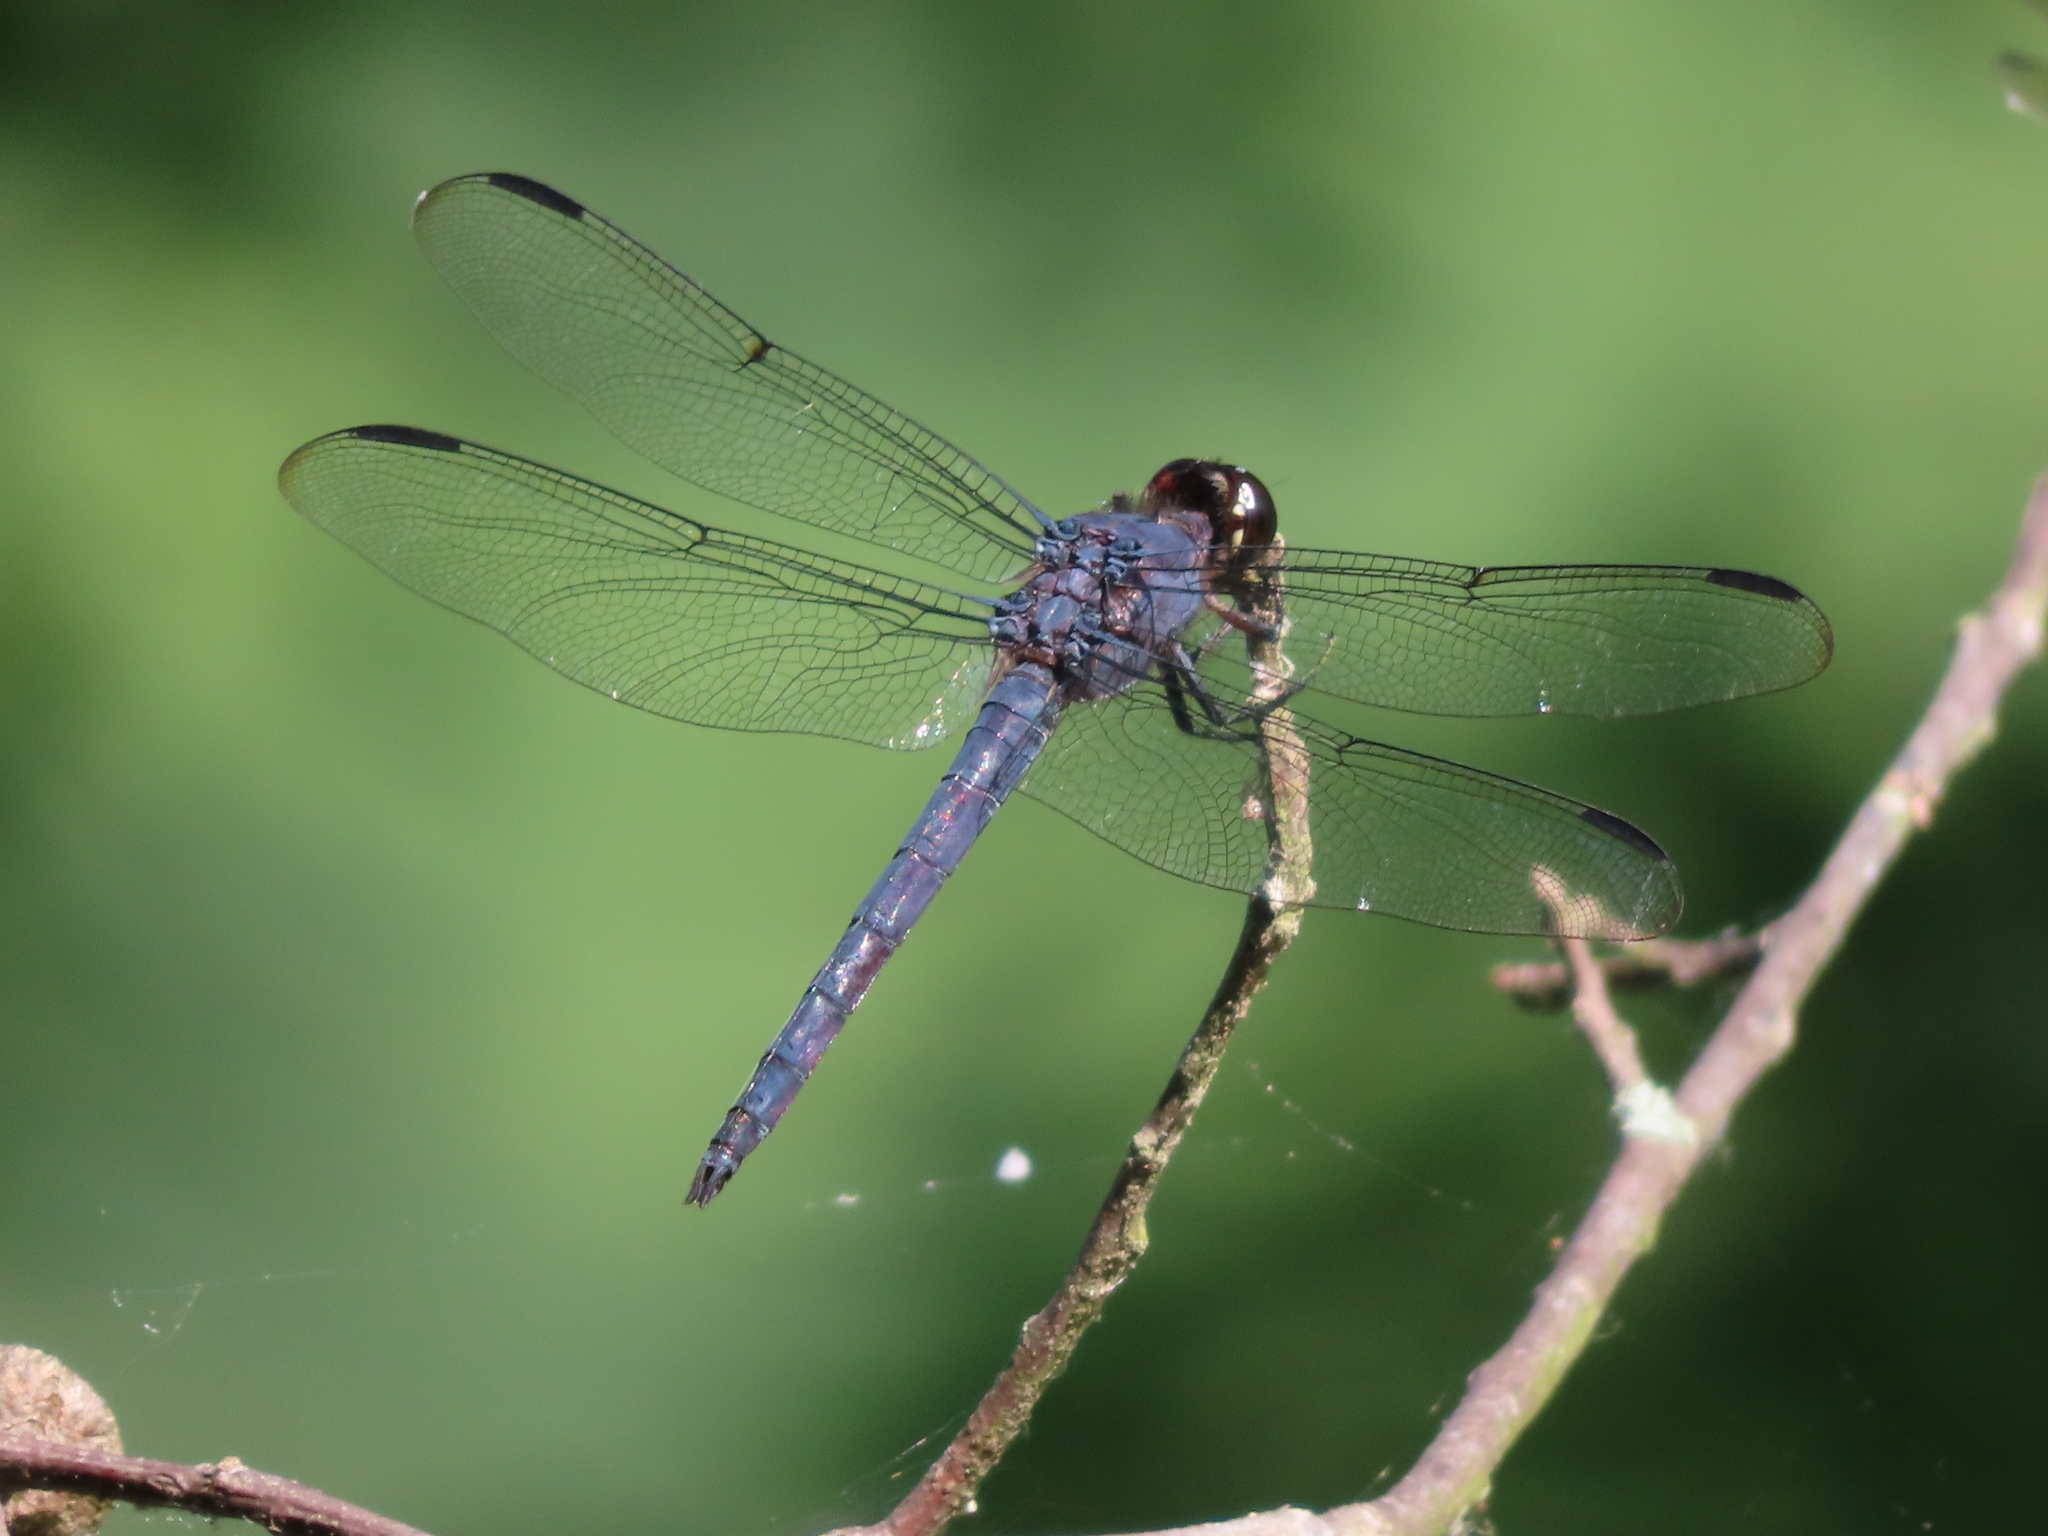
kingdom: Animalia
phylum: Arthropoda
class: Insecta
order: Odonata
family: Libellulidae
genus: Libellula
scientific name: Libellula incesta
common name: Slaty skimmer
